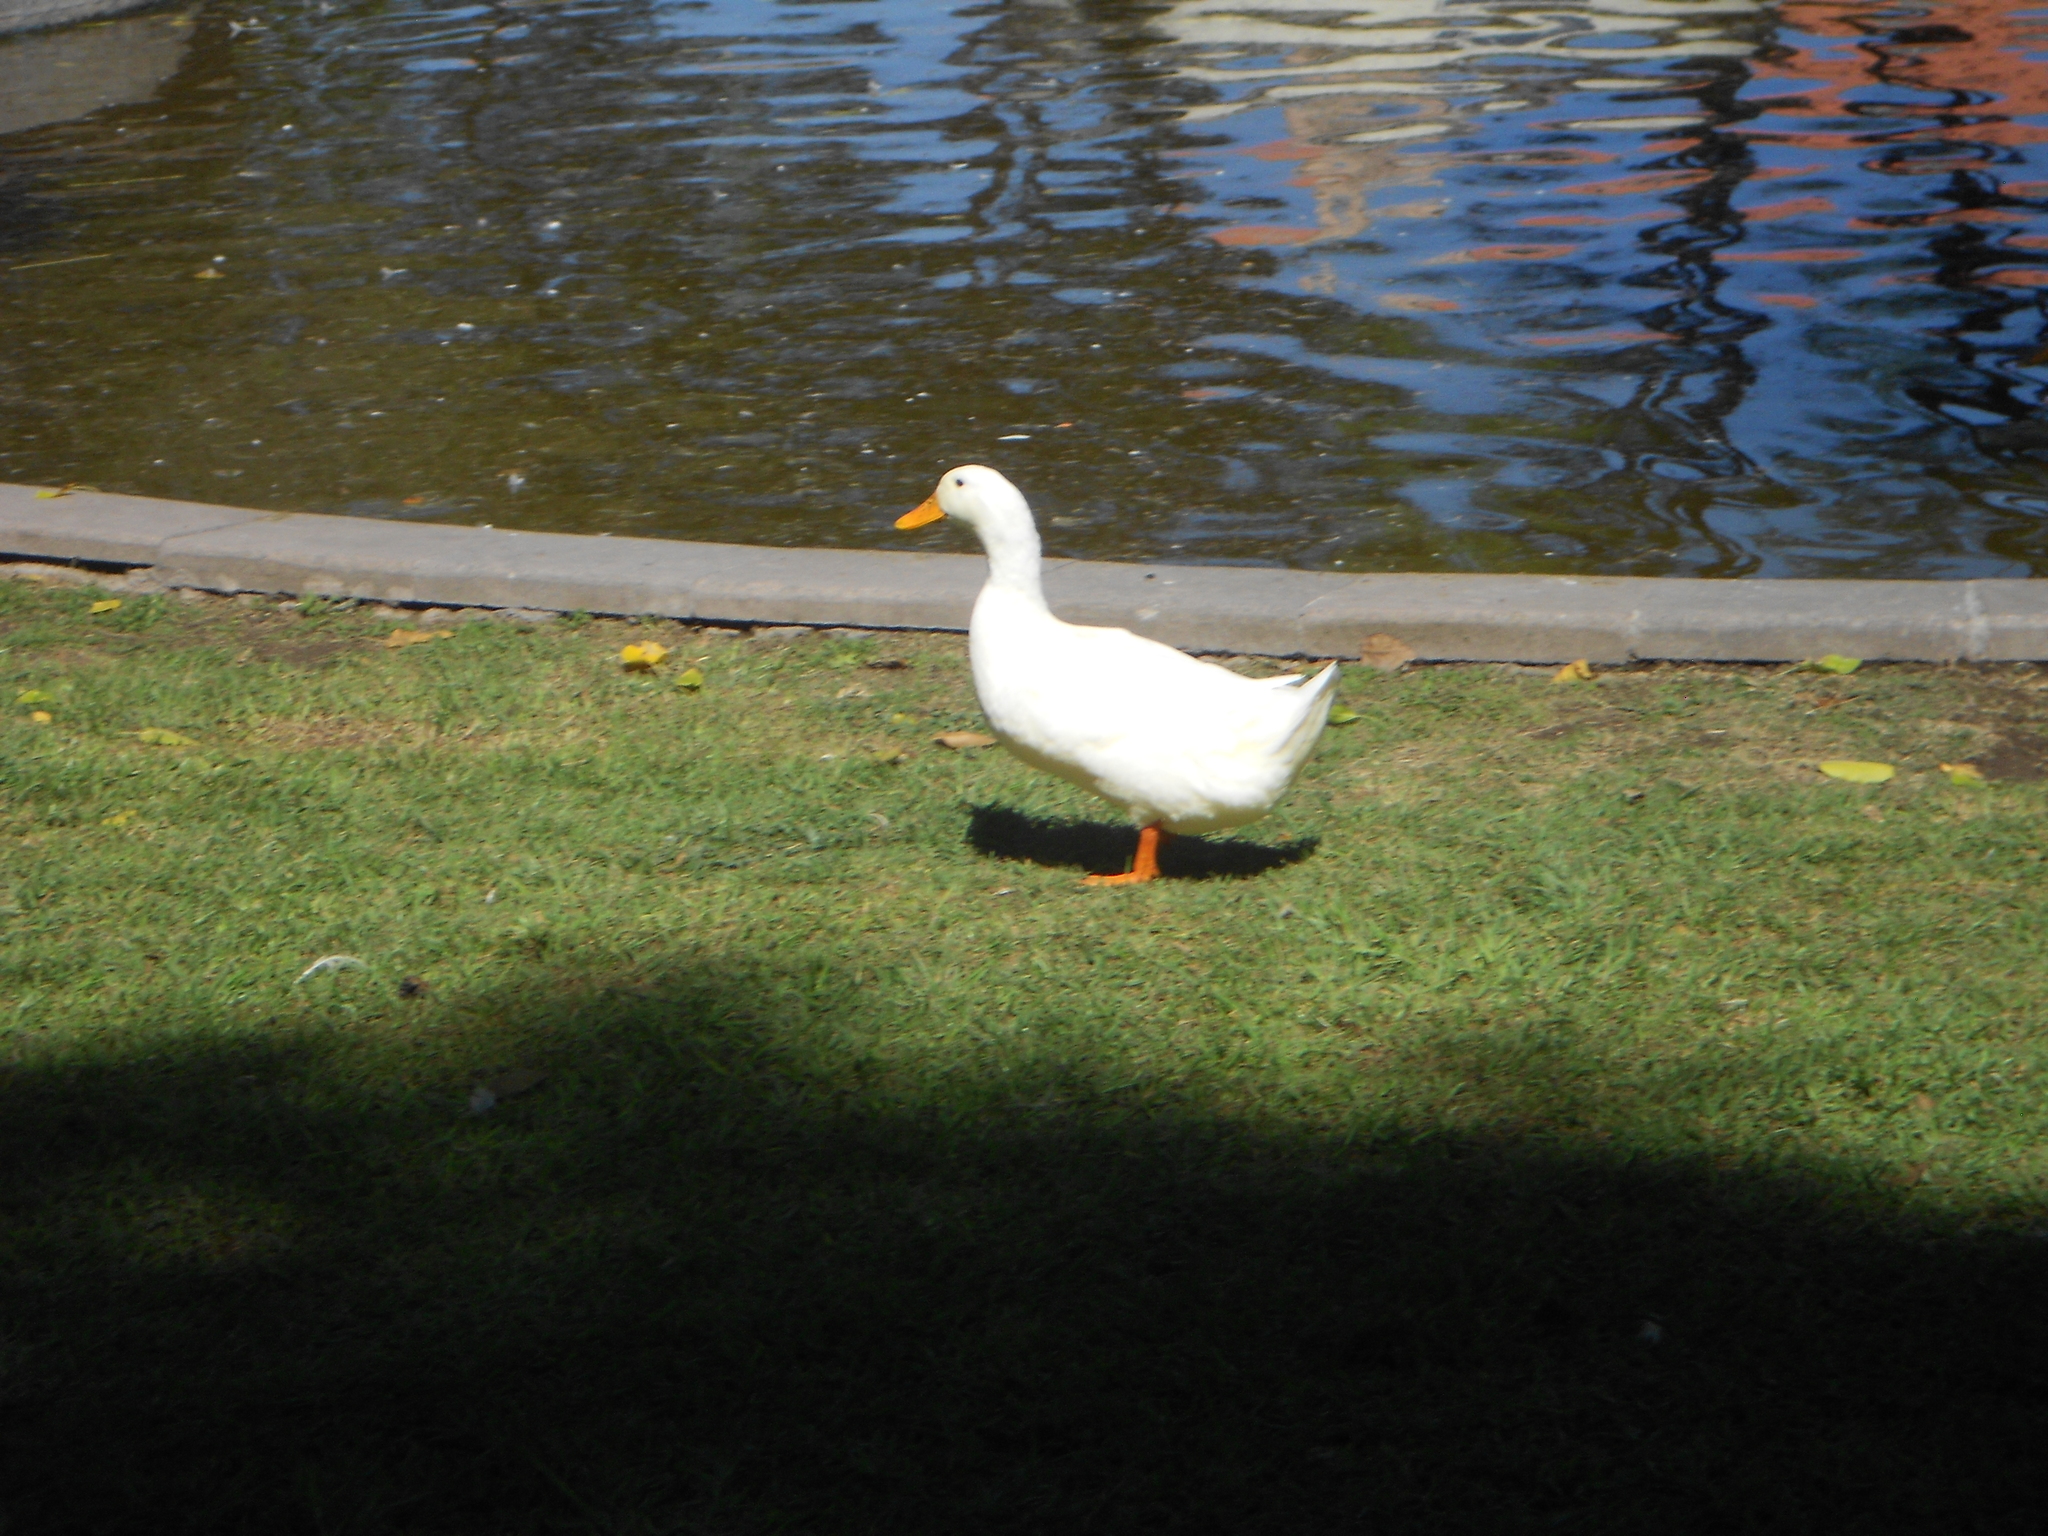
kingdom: Animalia
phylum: Chordata
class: Aves
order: Anseriformes
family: Anatidae
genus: Anas
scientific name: Anas platyrhynchos
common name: Mallard
